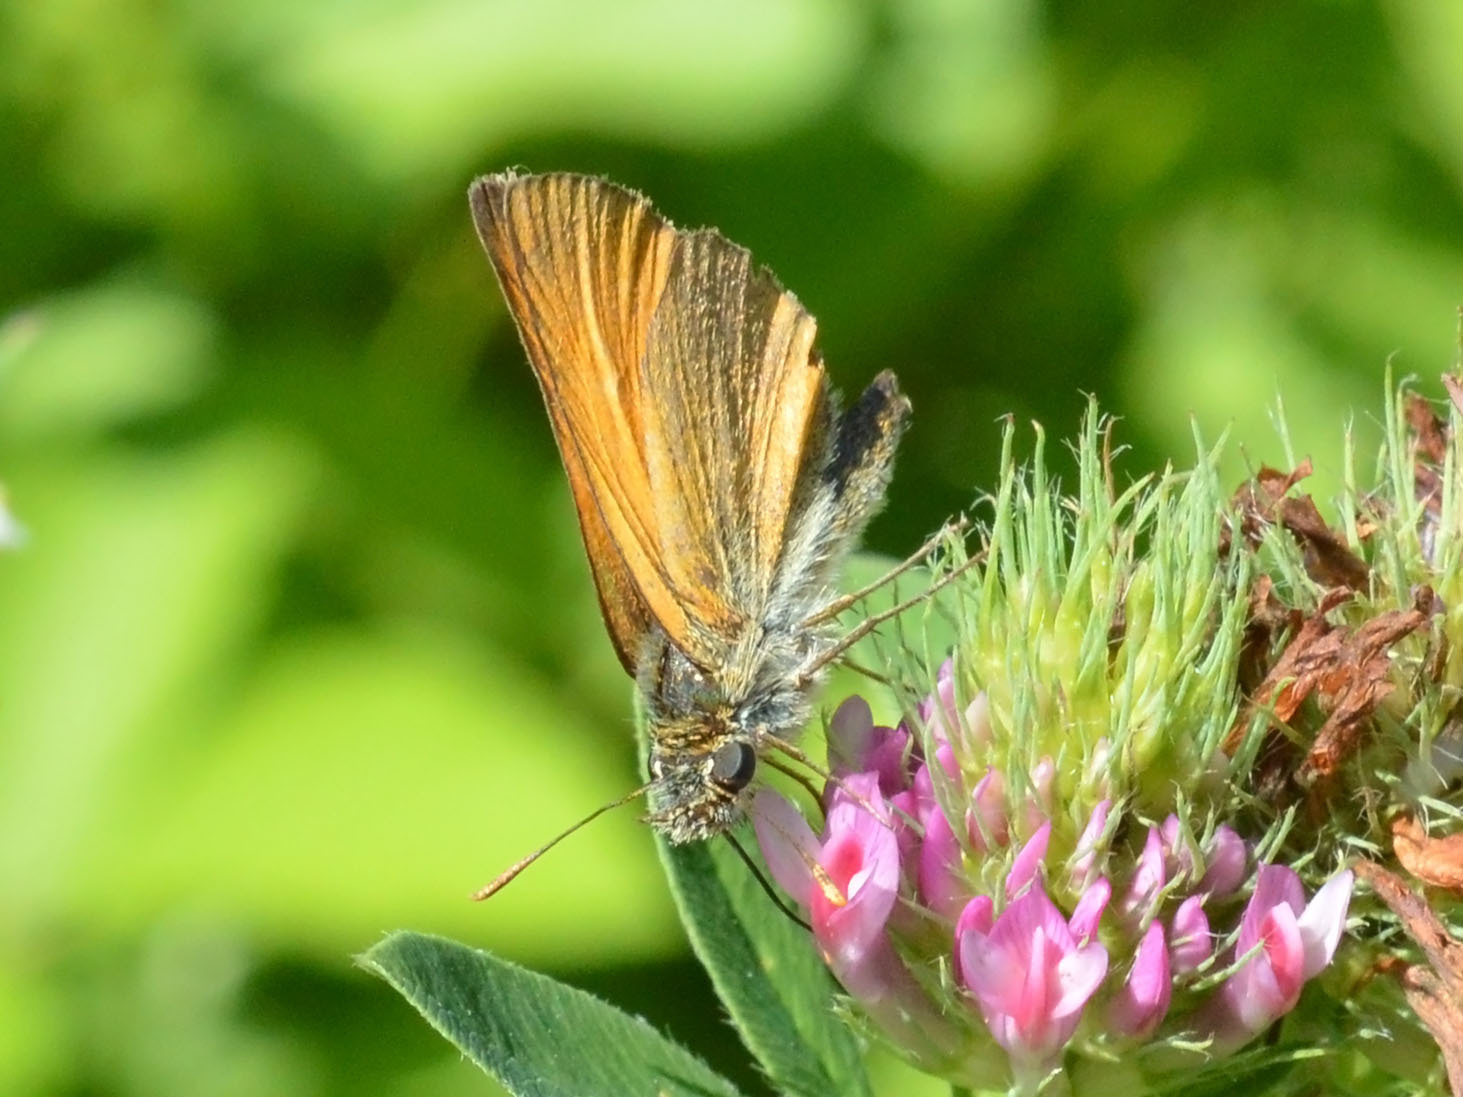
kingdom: Animalia
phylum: Arthropoda
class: Insecta
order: Lepidoptera
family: Hesperiidae
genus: Thymelicus
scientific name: Thymelicus sylvestris
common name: Small skipper
